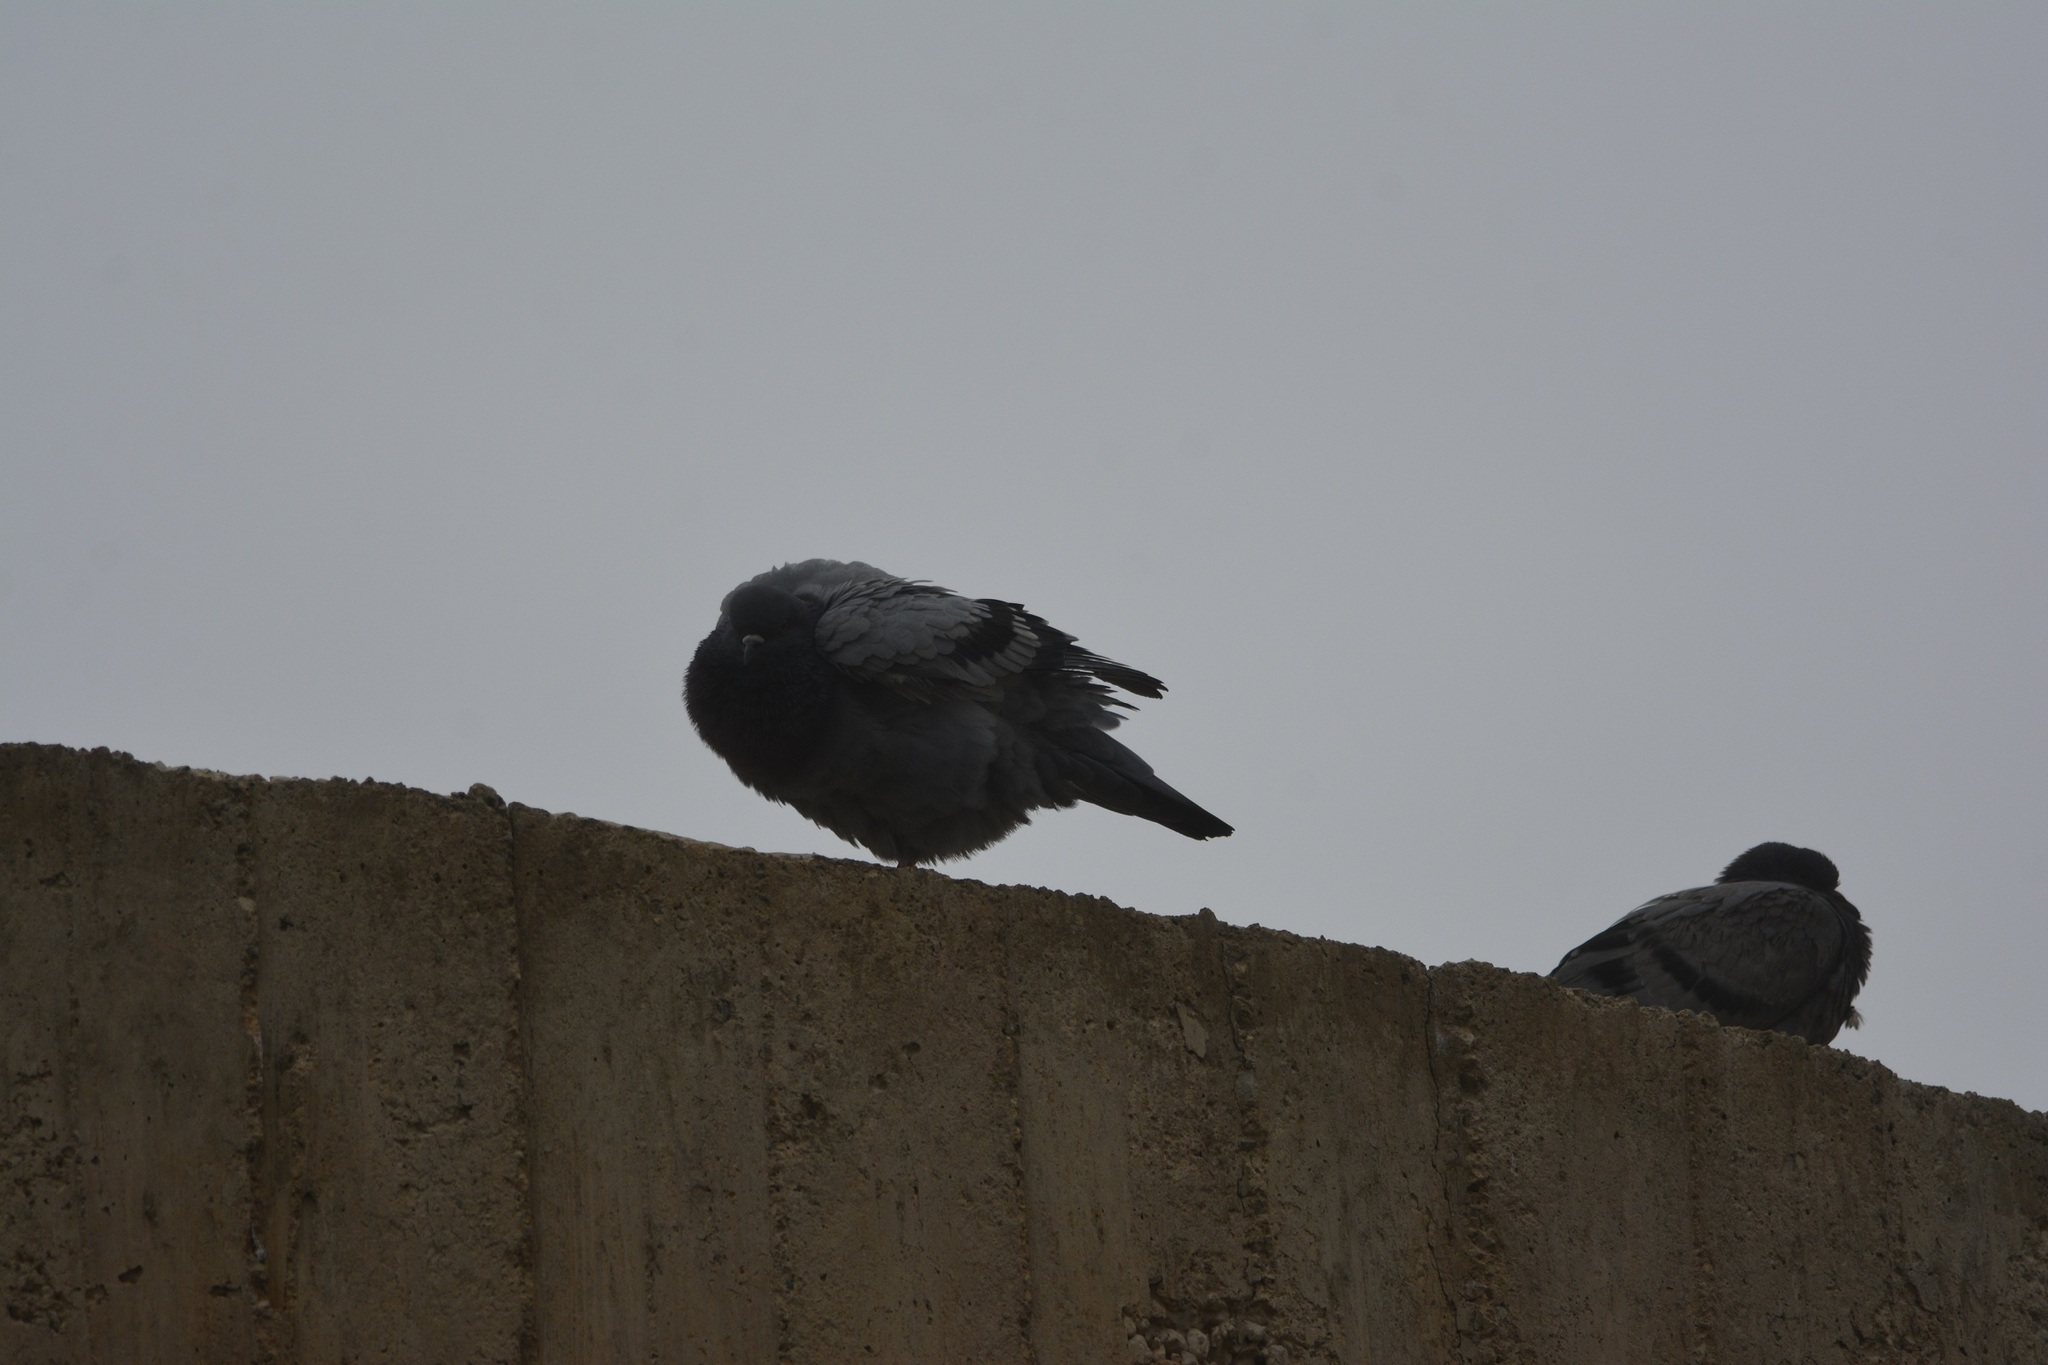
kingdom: Animalia
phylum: Chordata
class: Aves
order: Columbiformes
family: Columbidae
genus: Columba
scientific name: Columba livia
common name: Rock pigeon
